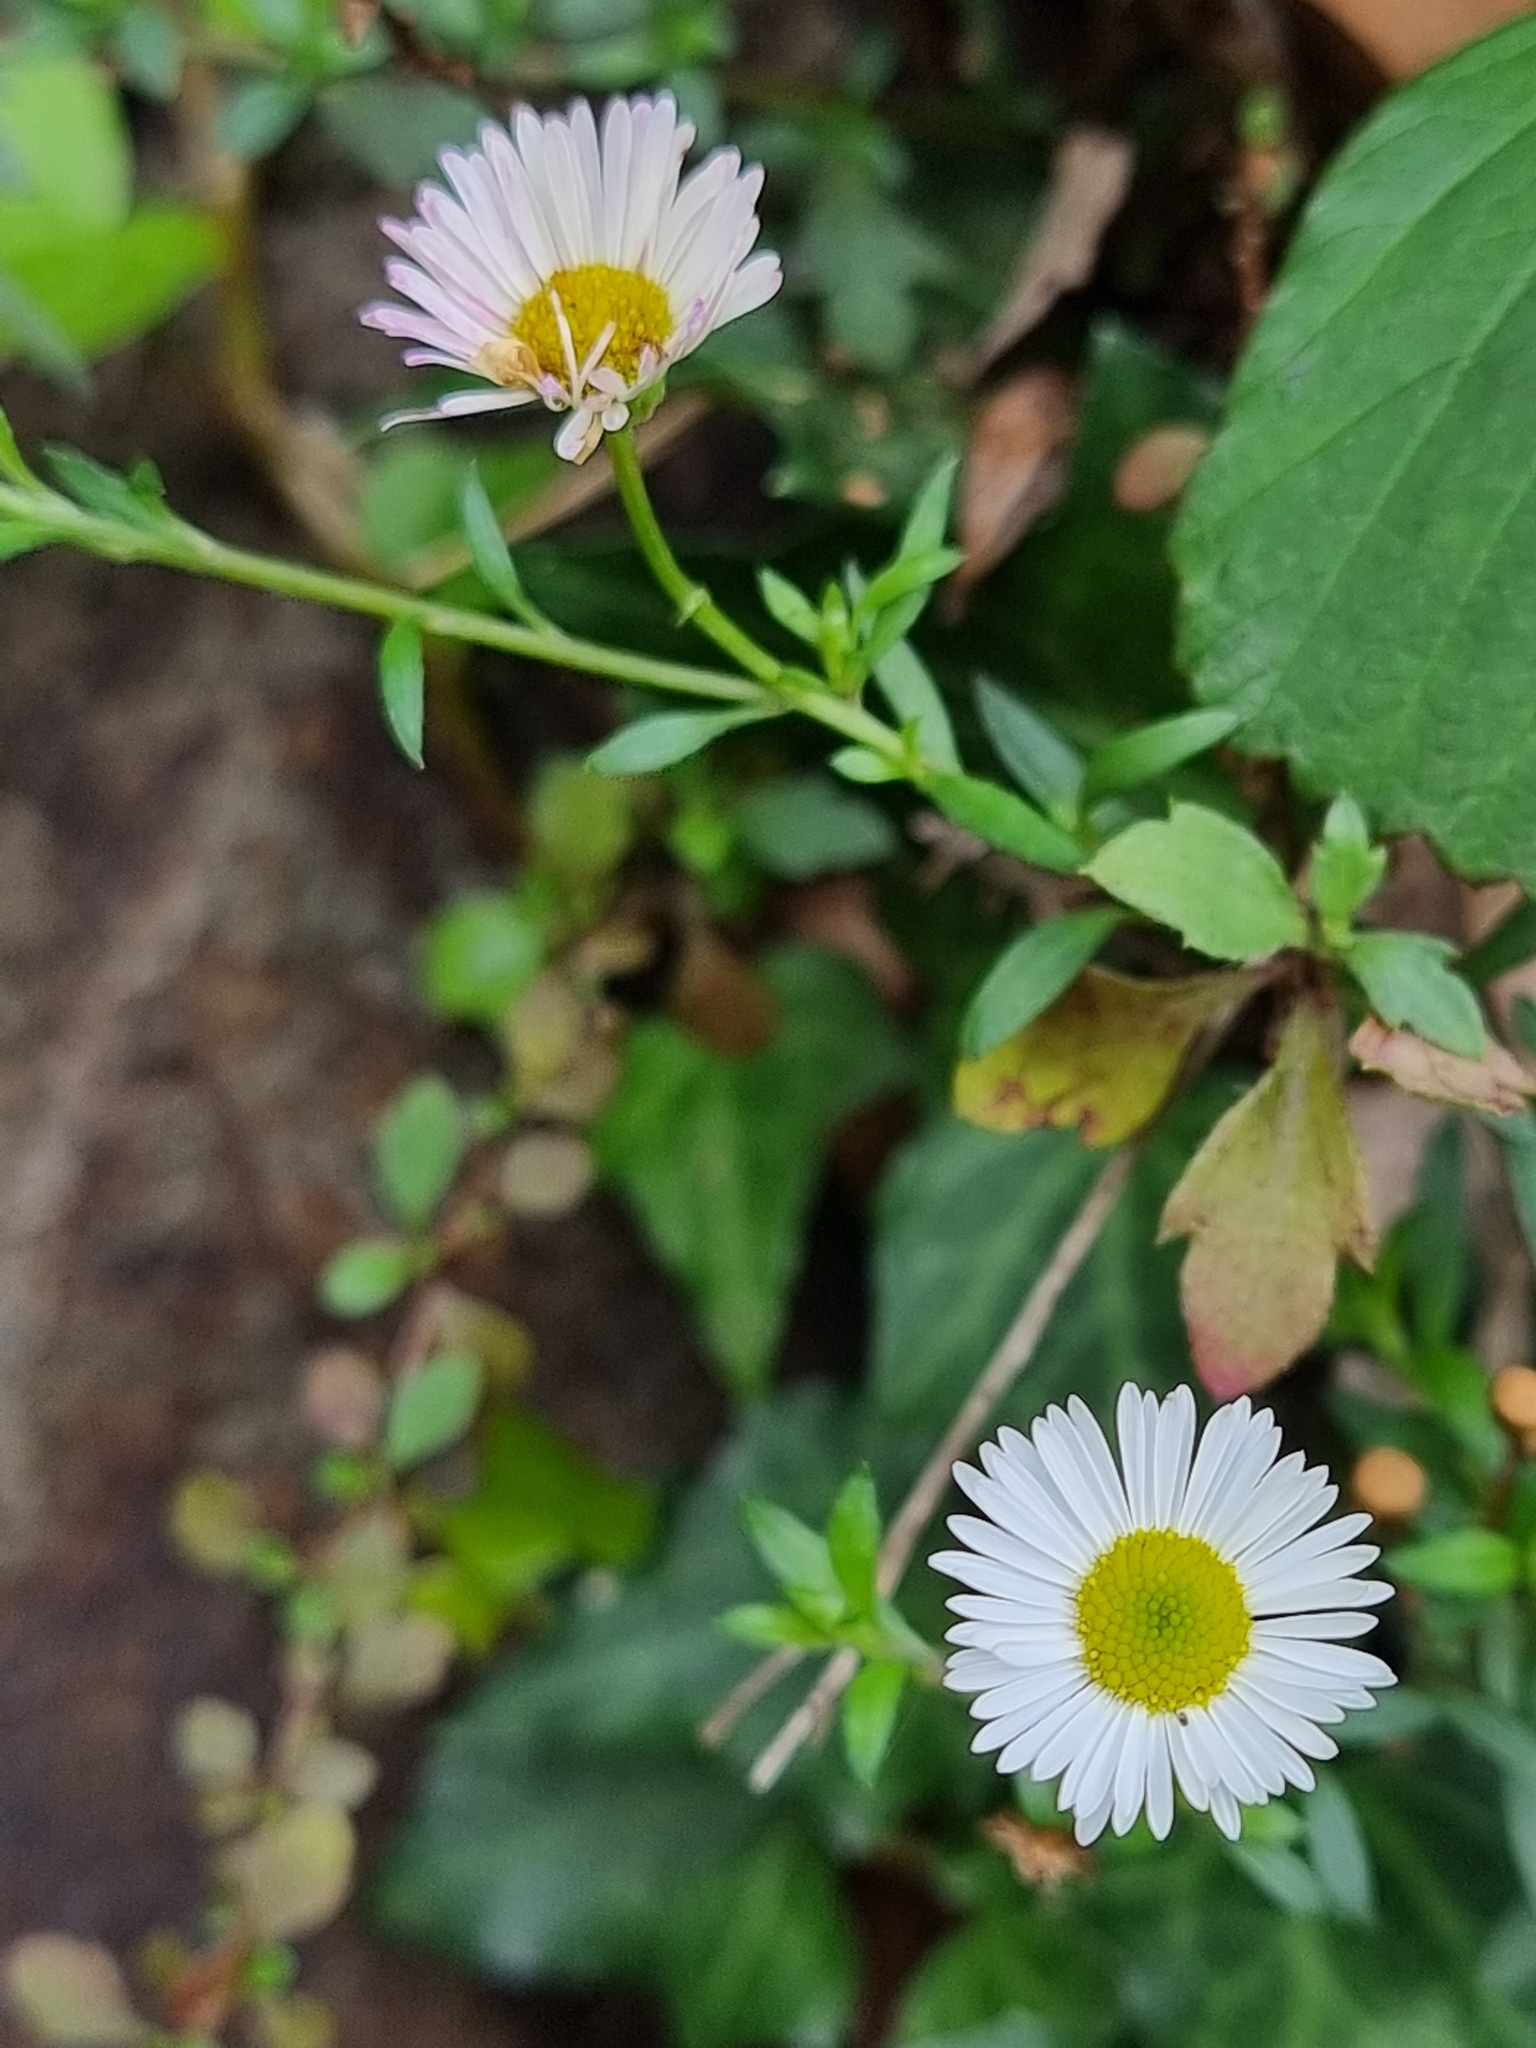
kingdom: Plantae
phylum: Tracheophyta
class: Magnoliopsida
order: Asterales
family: Asteraceae
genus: Erigeron
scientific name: Erigeron karvinskianus
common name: Mexican fleabane
